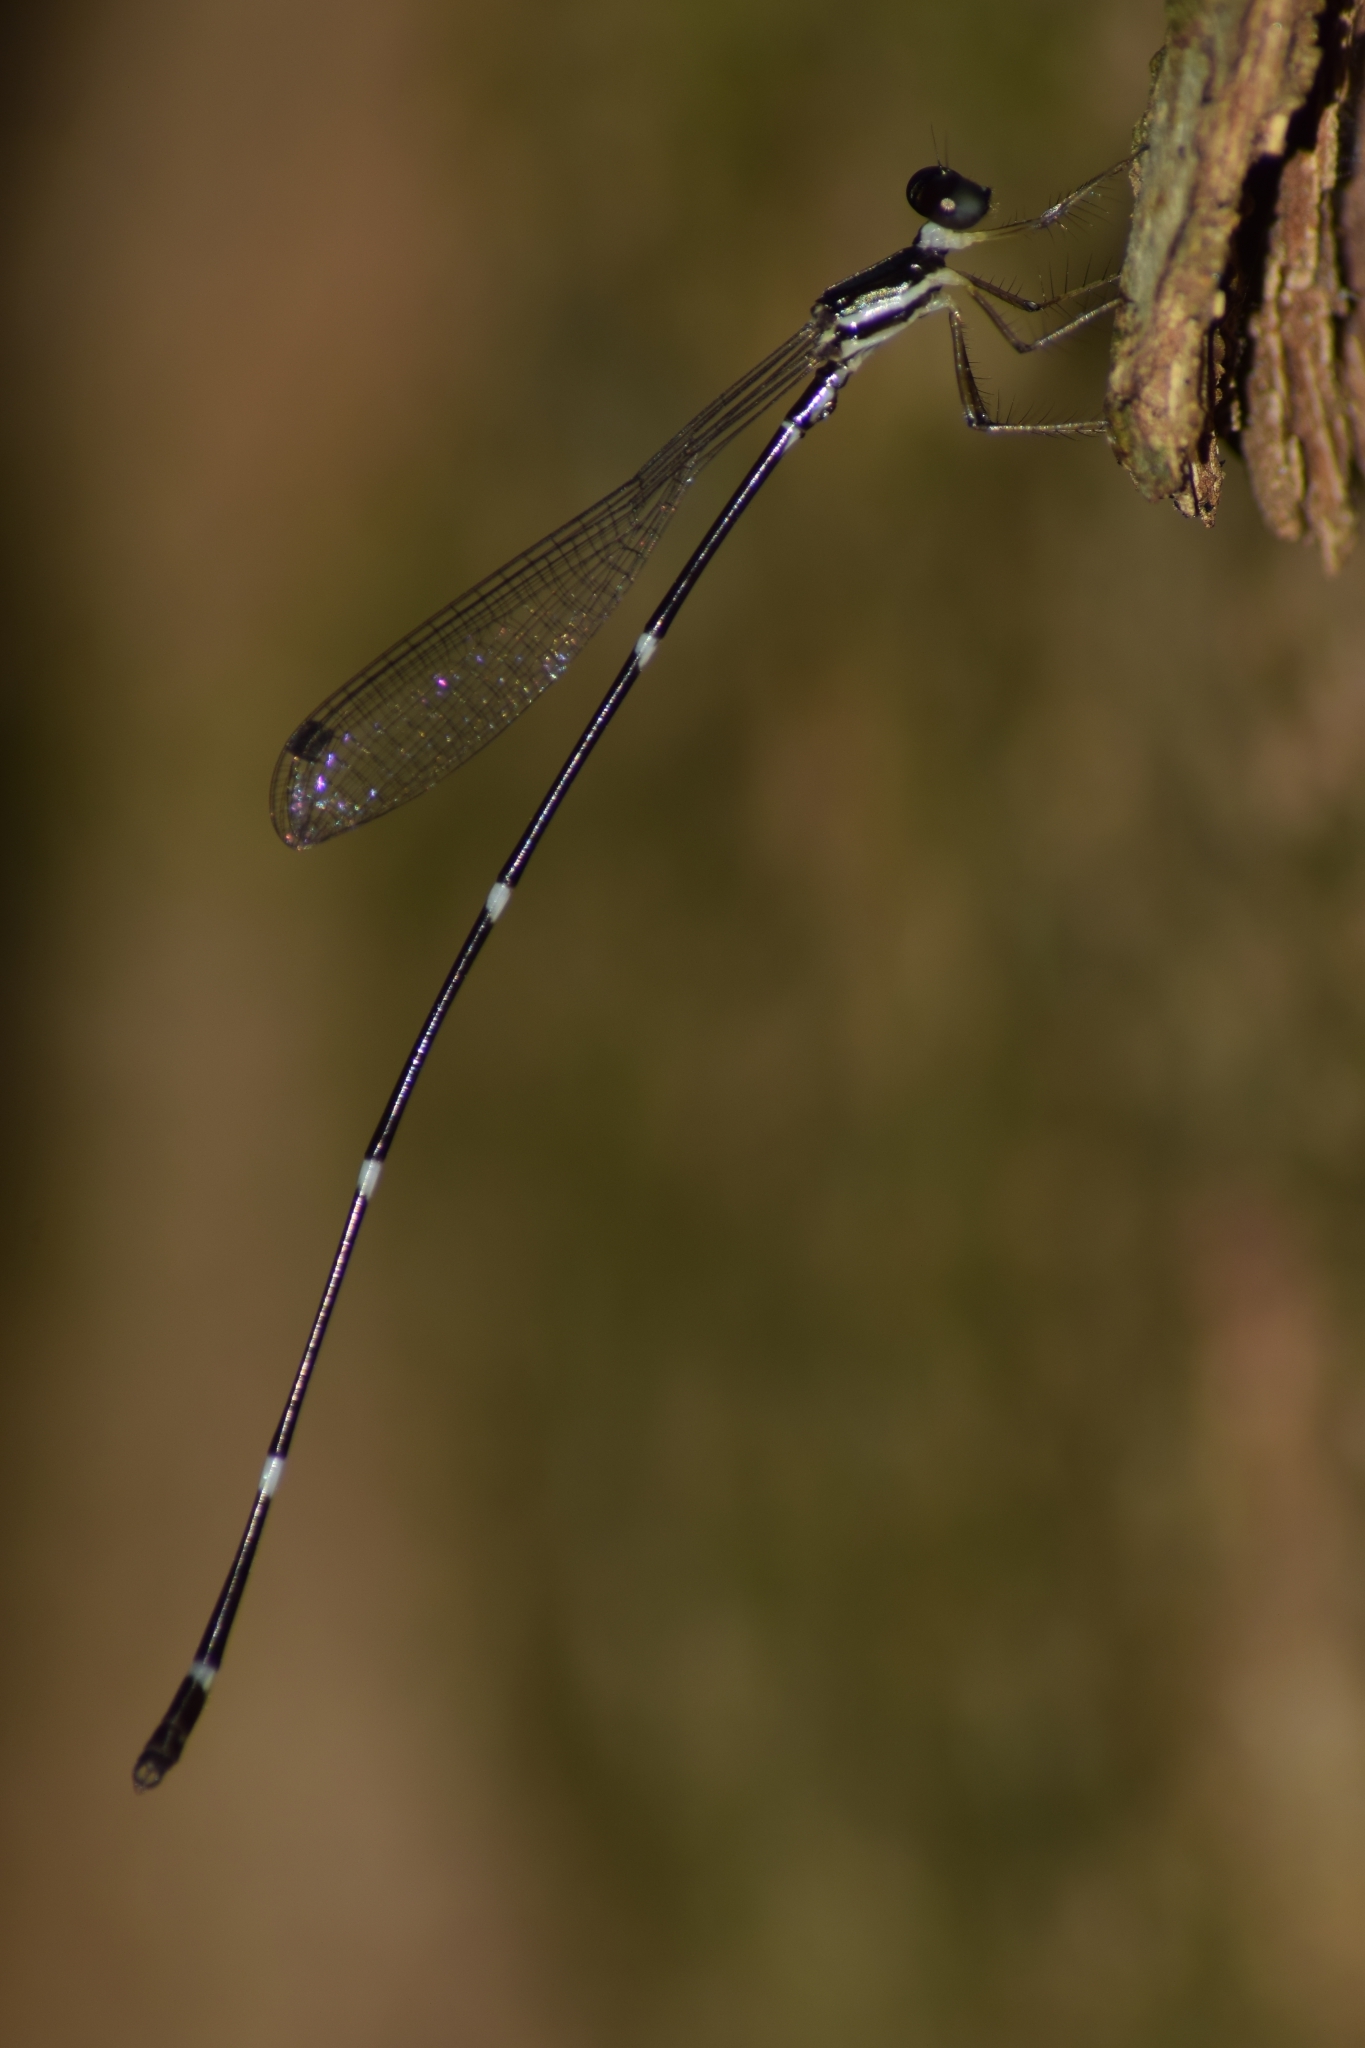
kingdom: Animalia
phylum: Arthropoda
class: Insecta
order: Odonata
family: Platystictidae
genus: Protosticta
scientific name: Protosticta gravelyi
